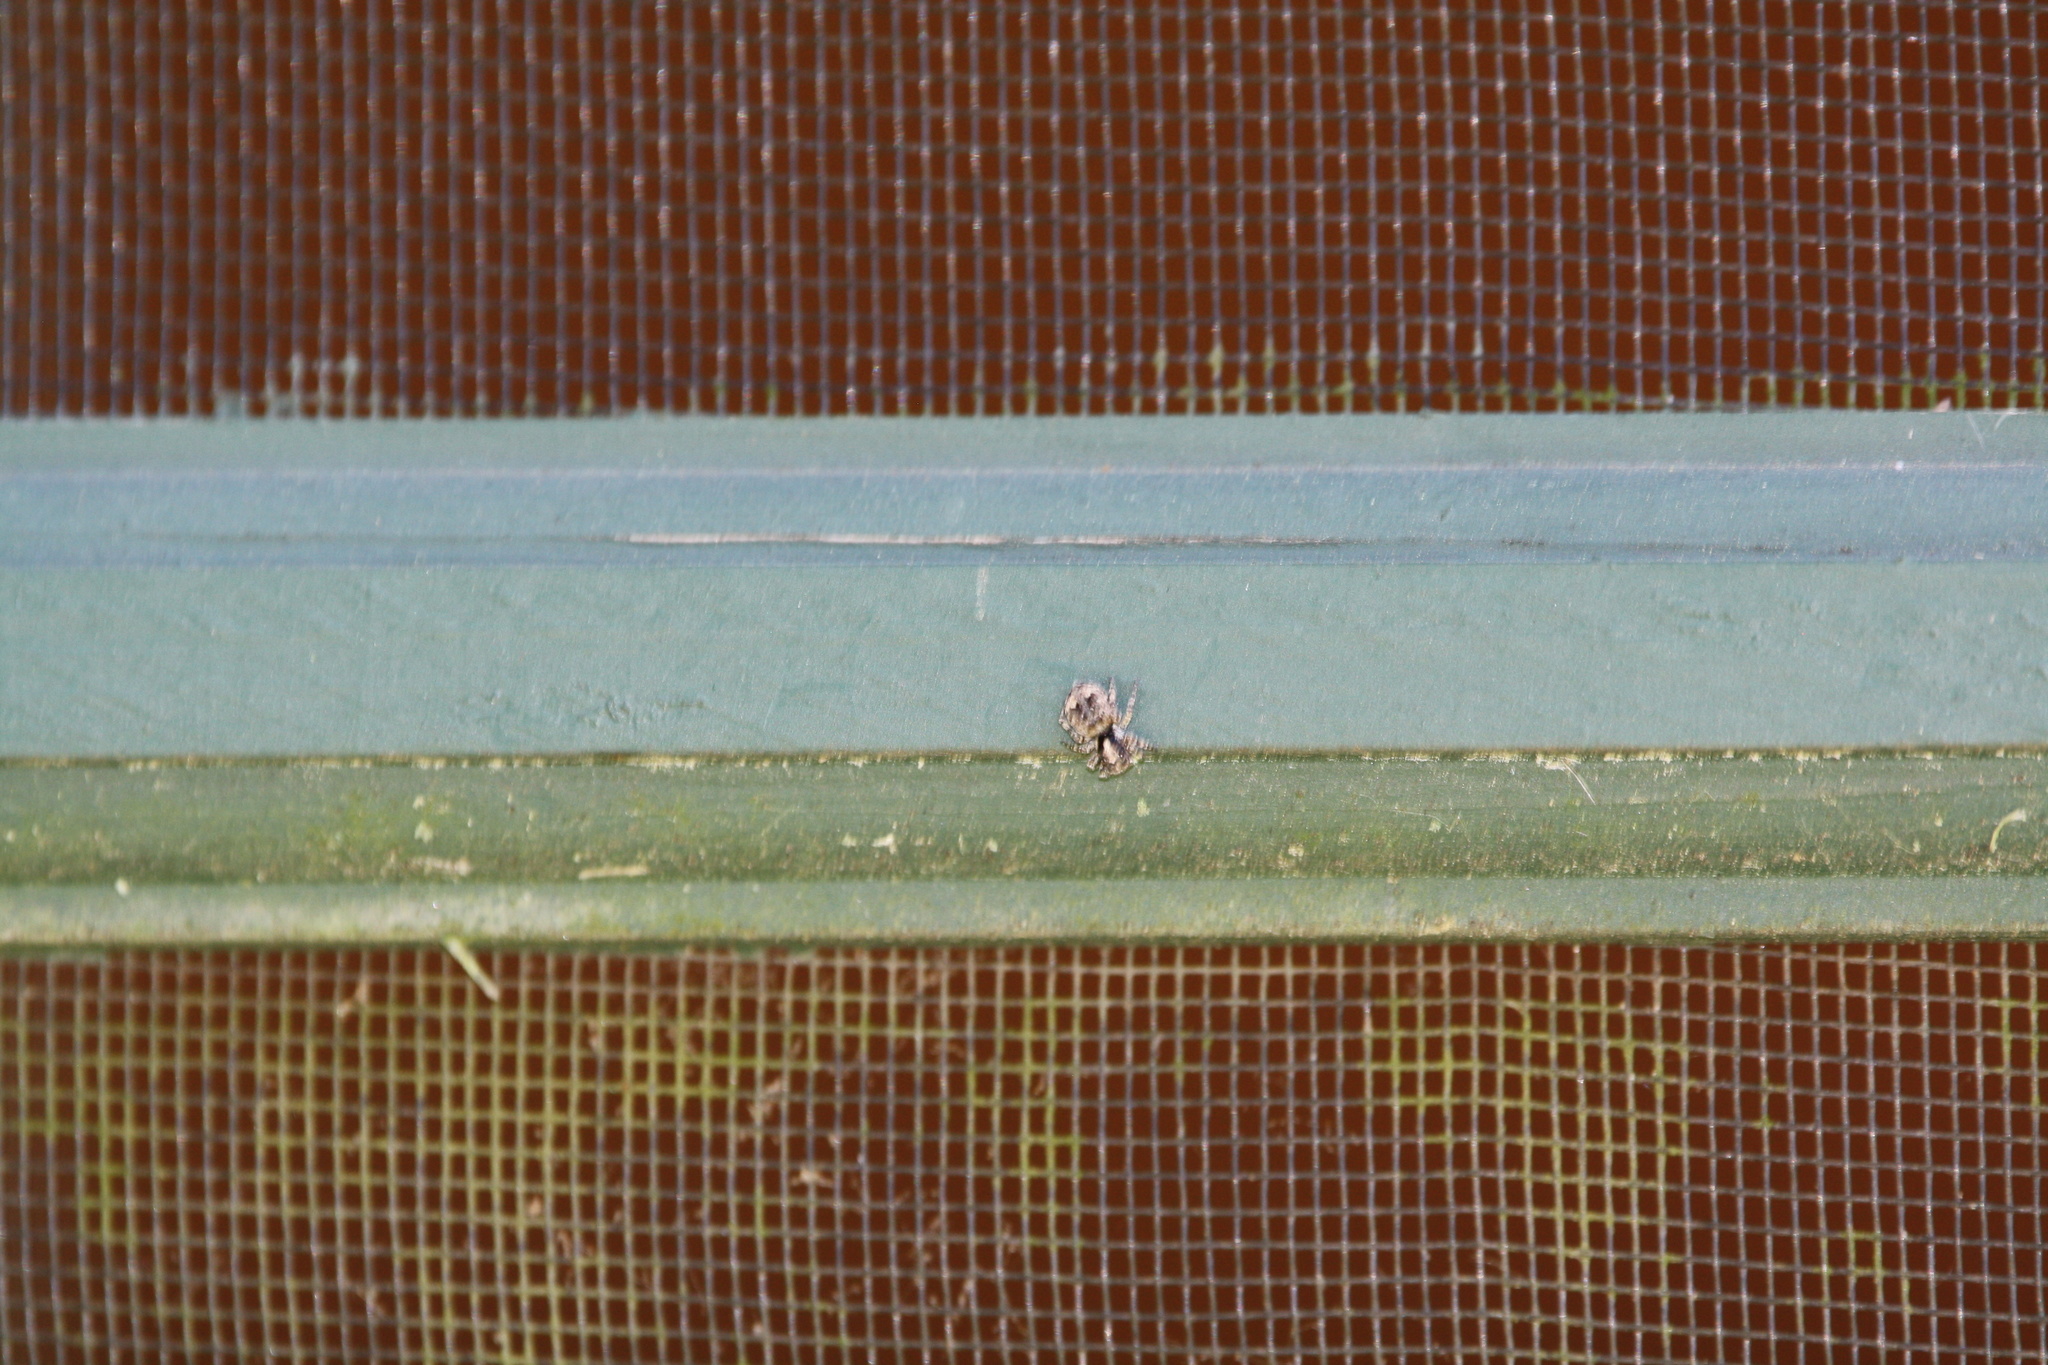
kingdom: Animalia
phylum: Arthropoda
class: Arachnida
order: Araneae
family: Salticidae
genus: Attulus
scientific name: Attulus fasciger
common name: Asiatic wall jumping spider
